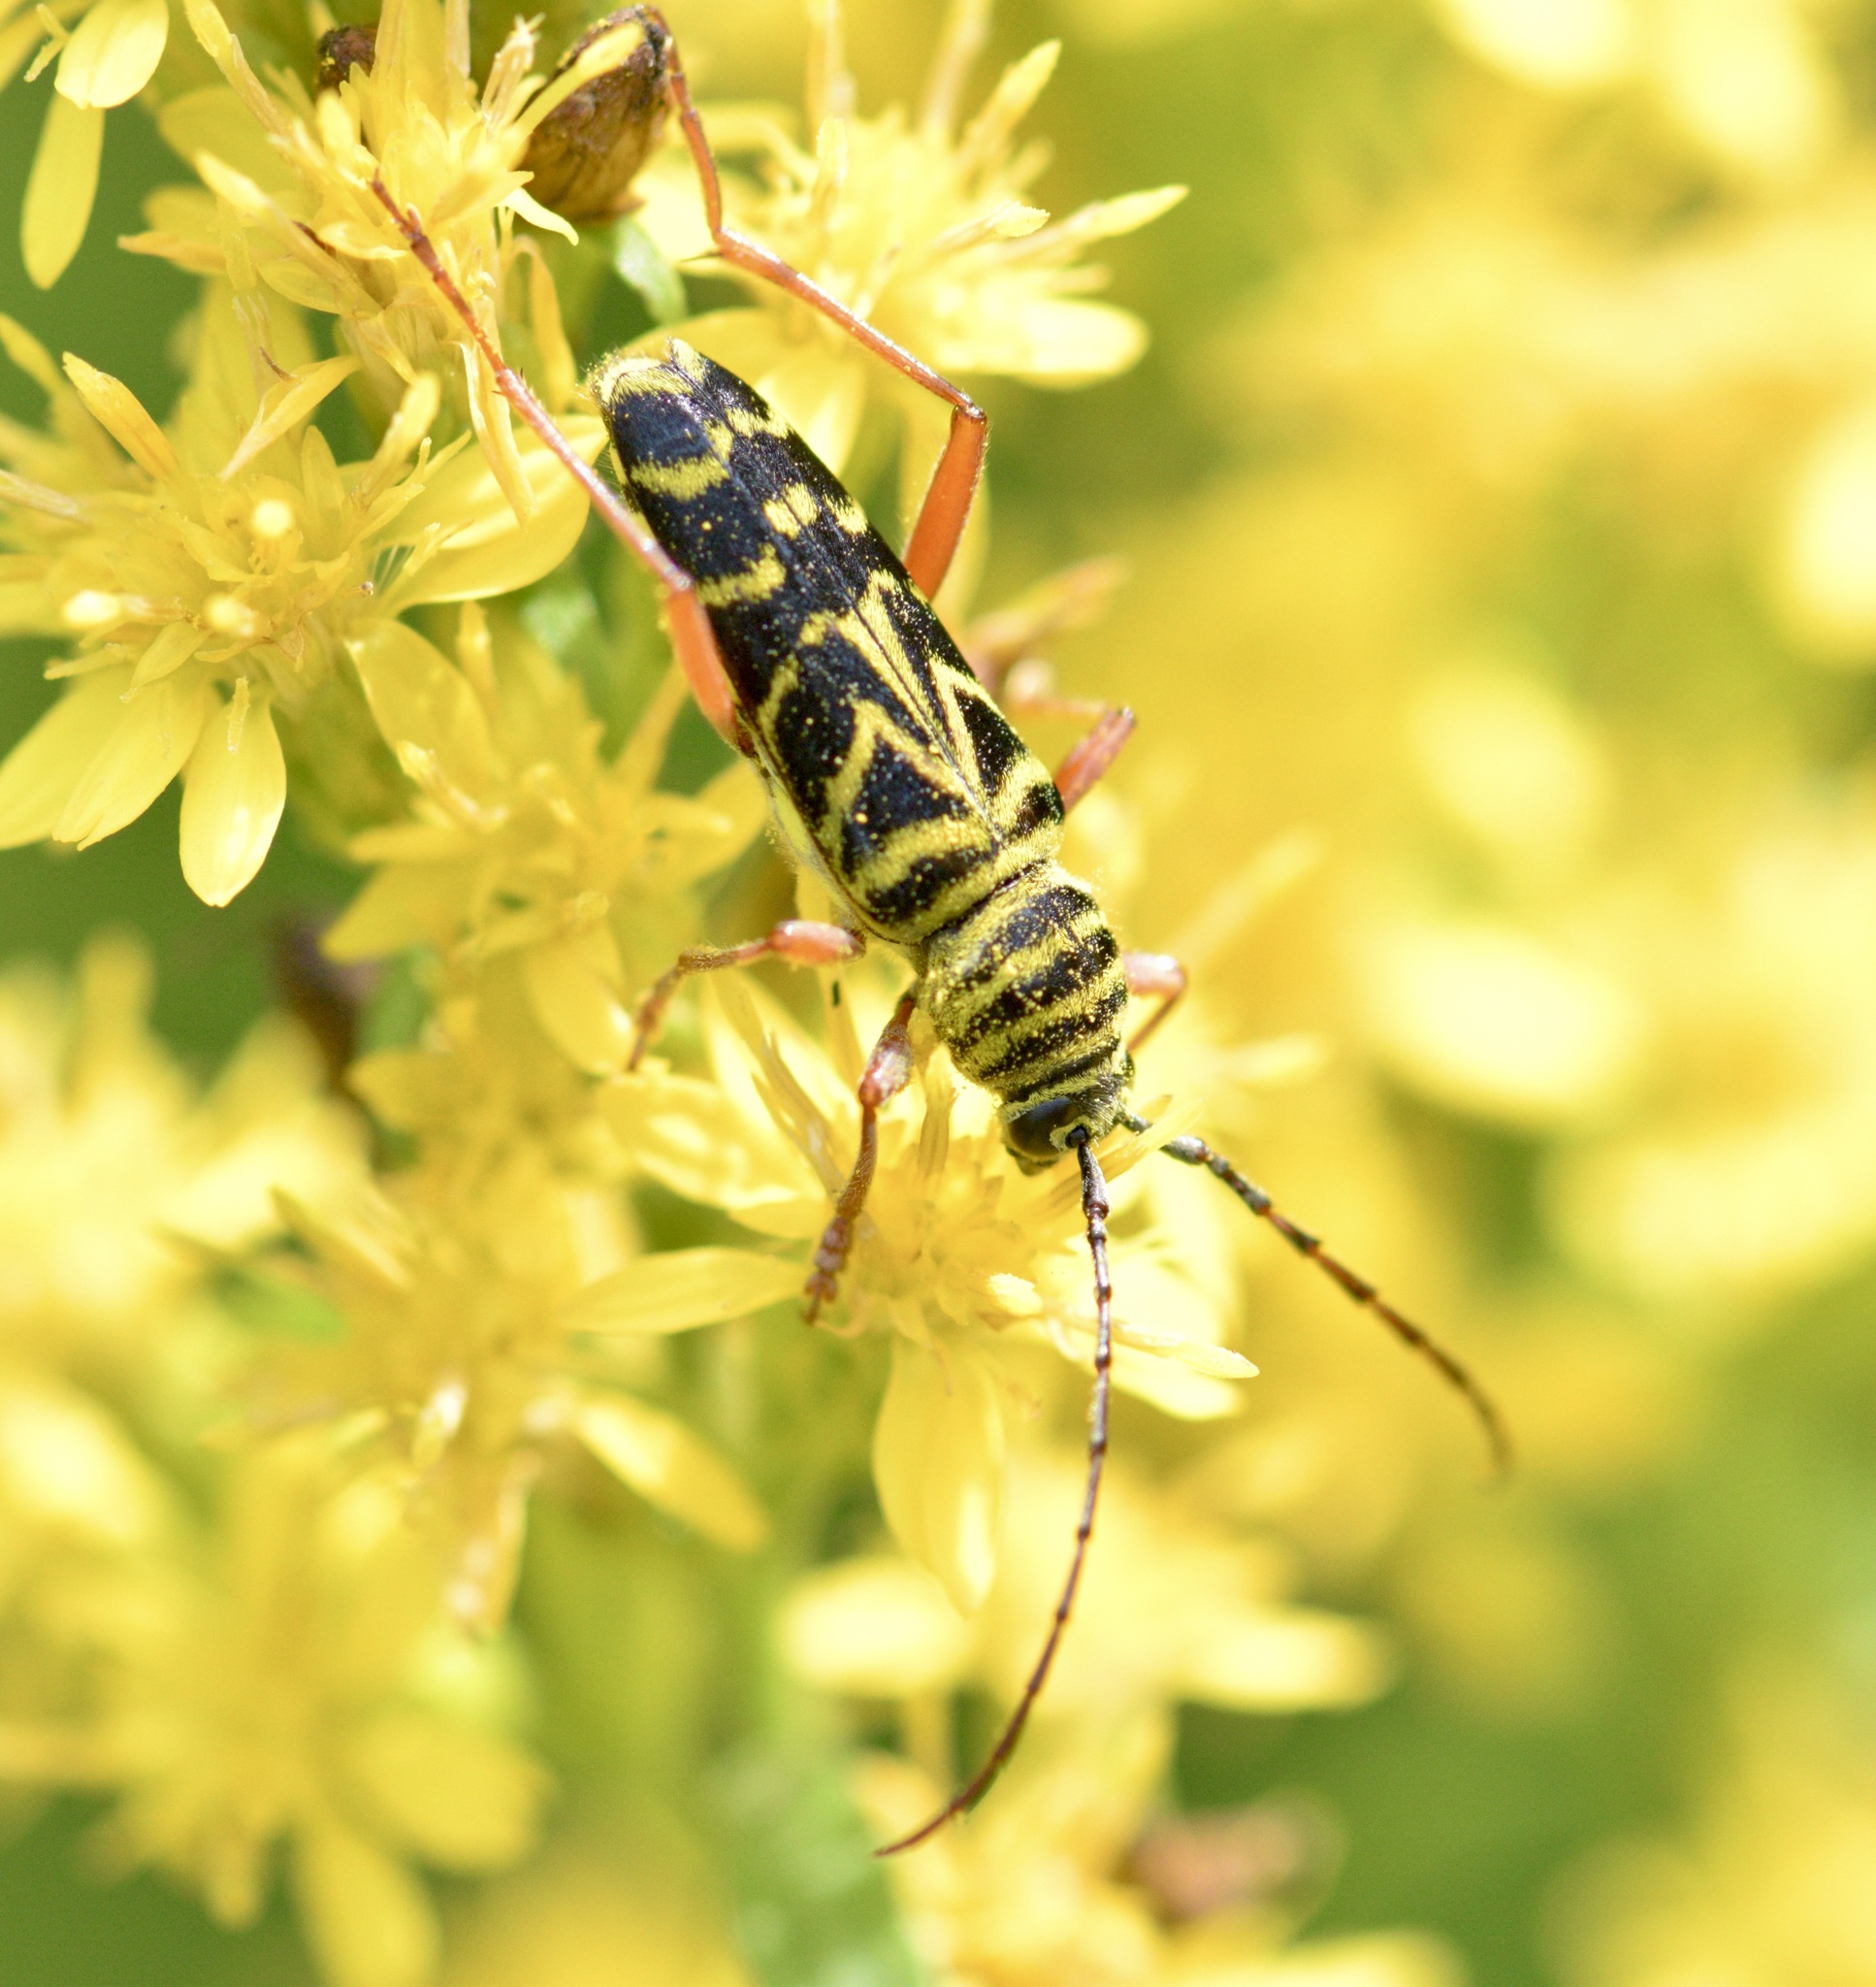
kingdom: Animalia
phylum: Arthropoda
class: Insecta
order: Coleoptera
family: Cerambycidae
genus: Megacyllene
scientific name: Megacyllene robiniae
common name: Locust borer
